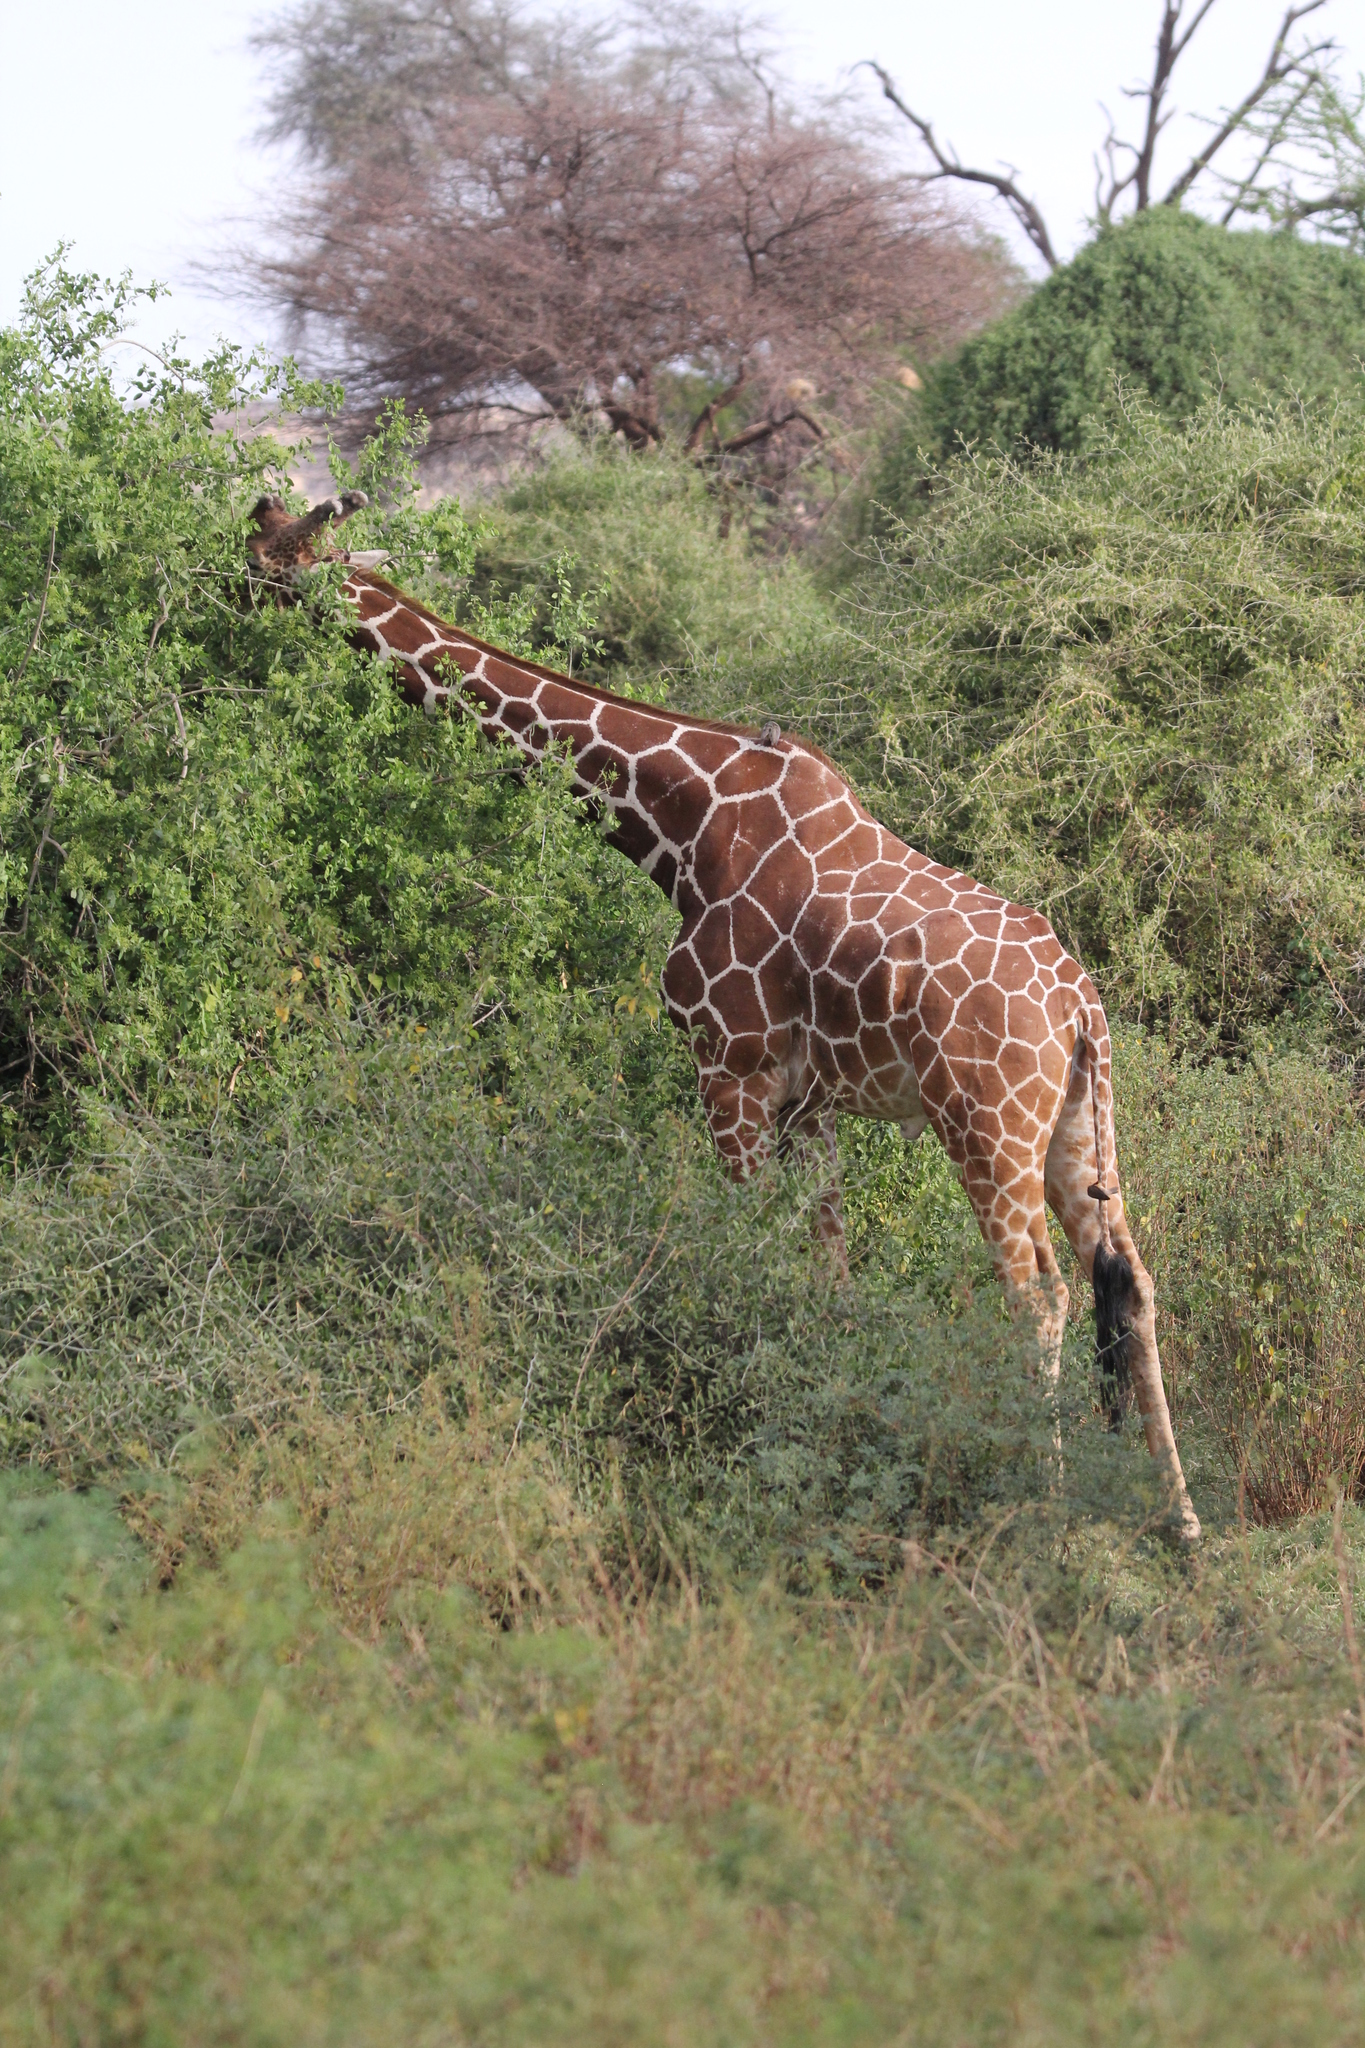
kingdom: Animalia
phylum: Chordata
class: Mammalia
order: Artiodactyla
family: Giraffidae
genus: Giraffa
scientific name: Giraffa reticulata
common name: Reticulated giraffe
